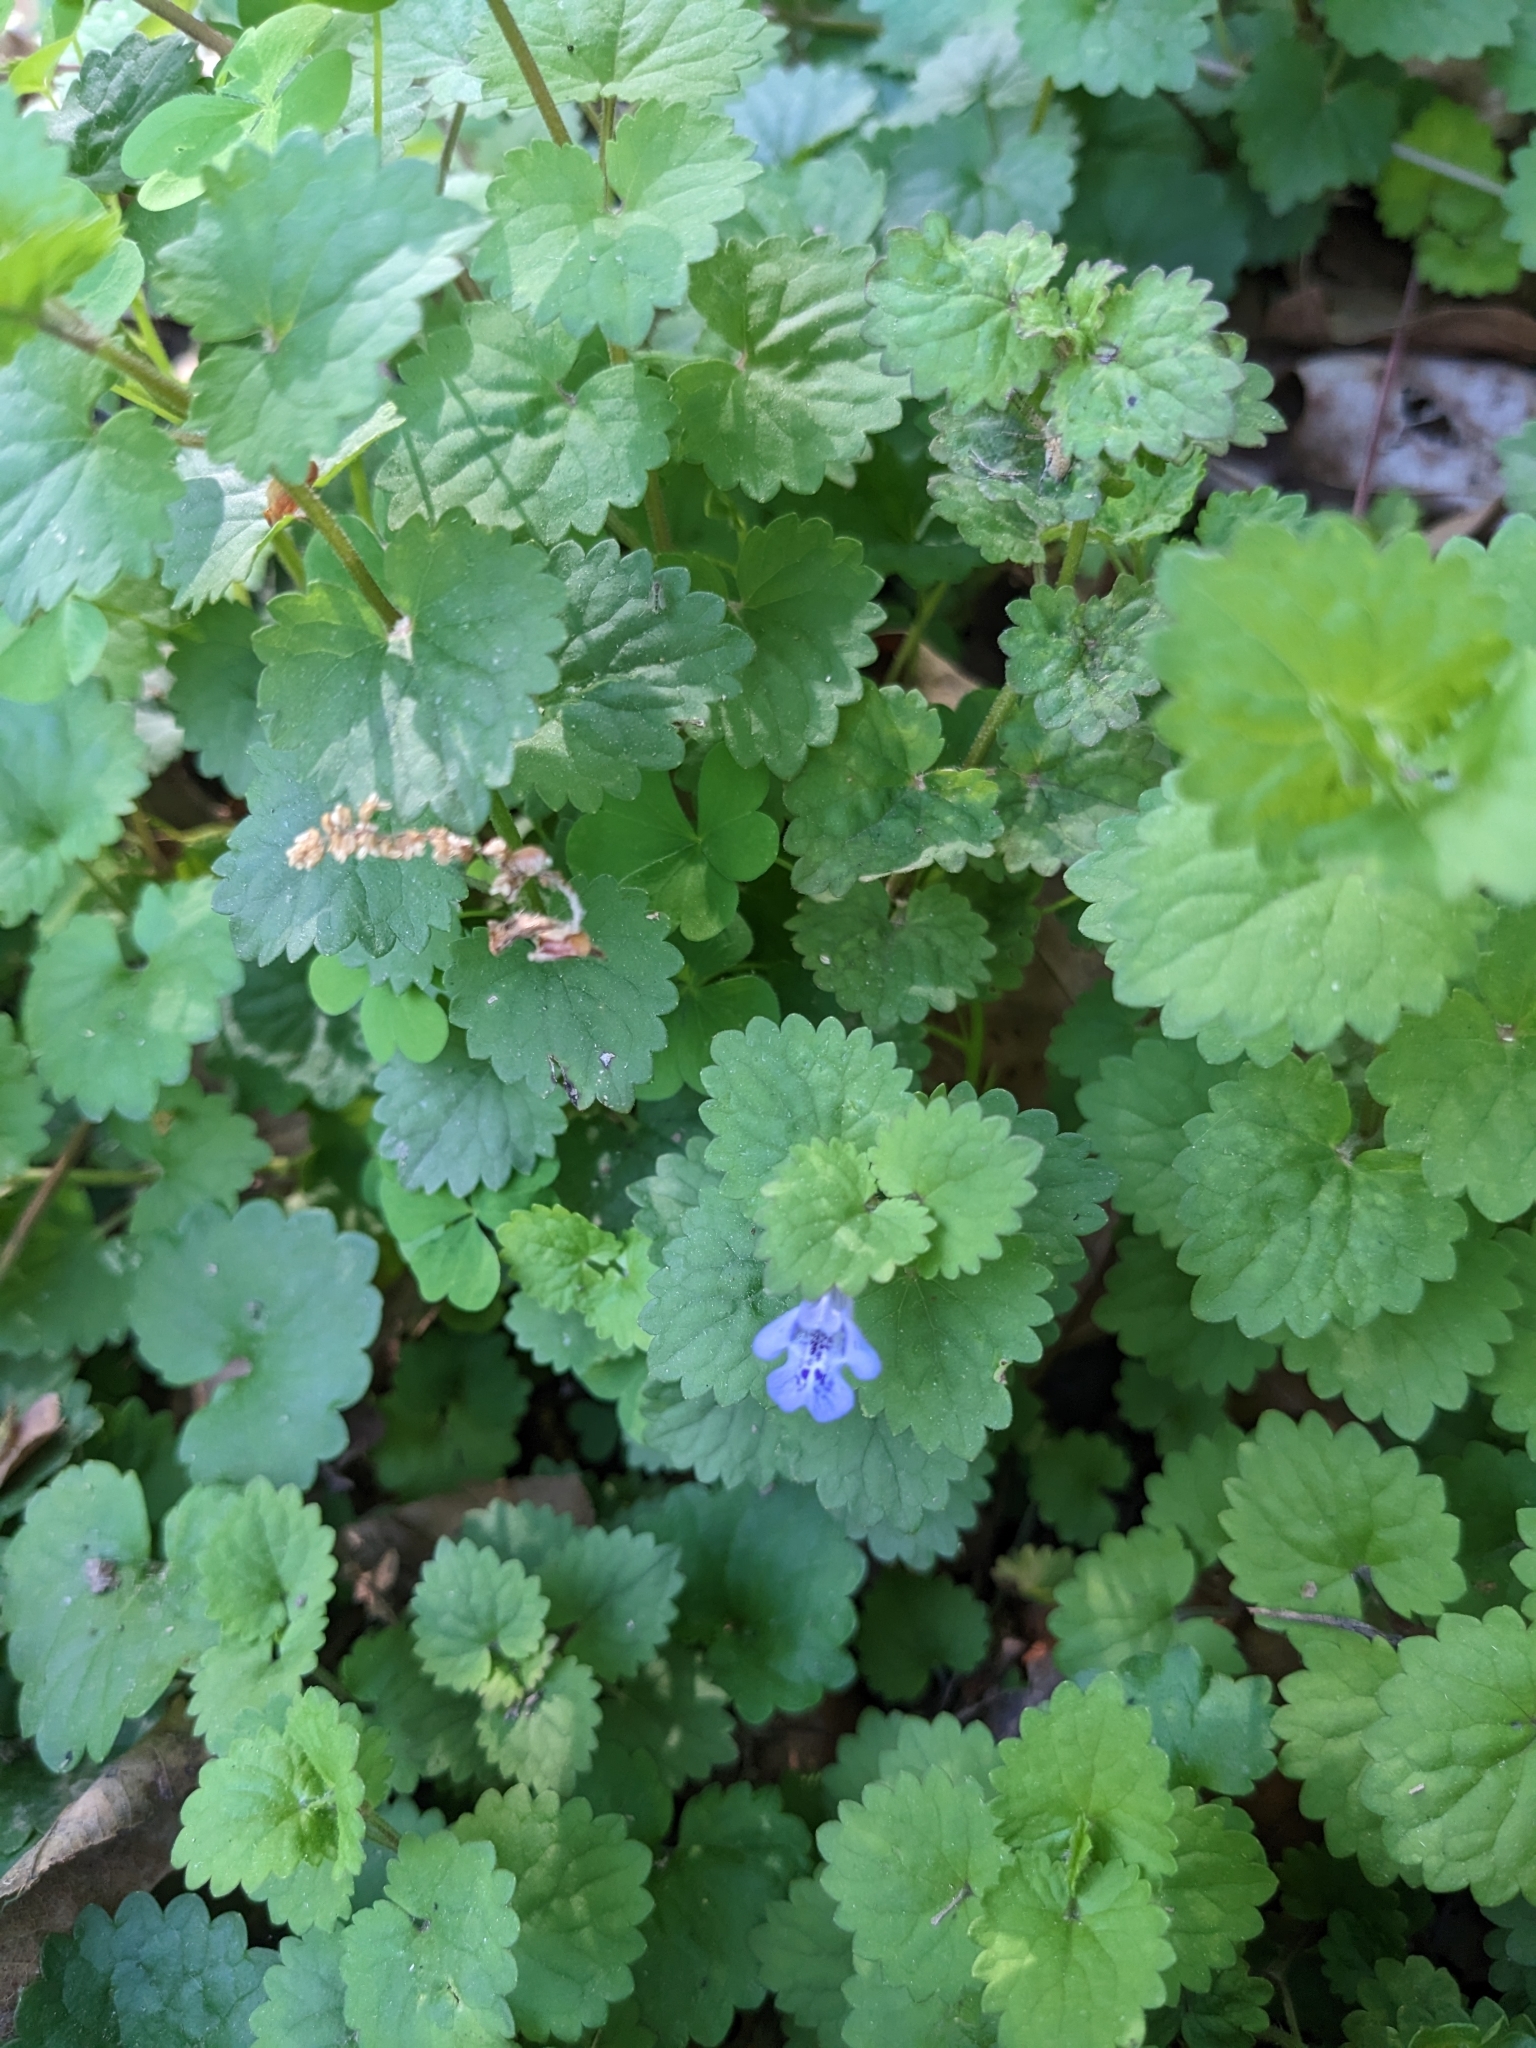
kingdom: Plantae
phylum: Tracheophyta
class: Magnoliopsida
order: Lamiales
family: Lamiaceae
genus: Glechoma
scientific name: Glechoma hederacea
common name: Ground ivy
